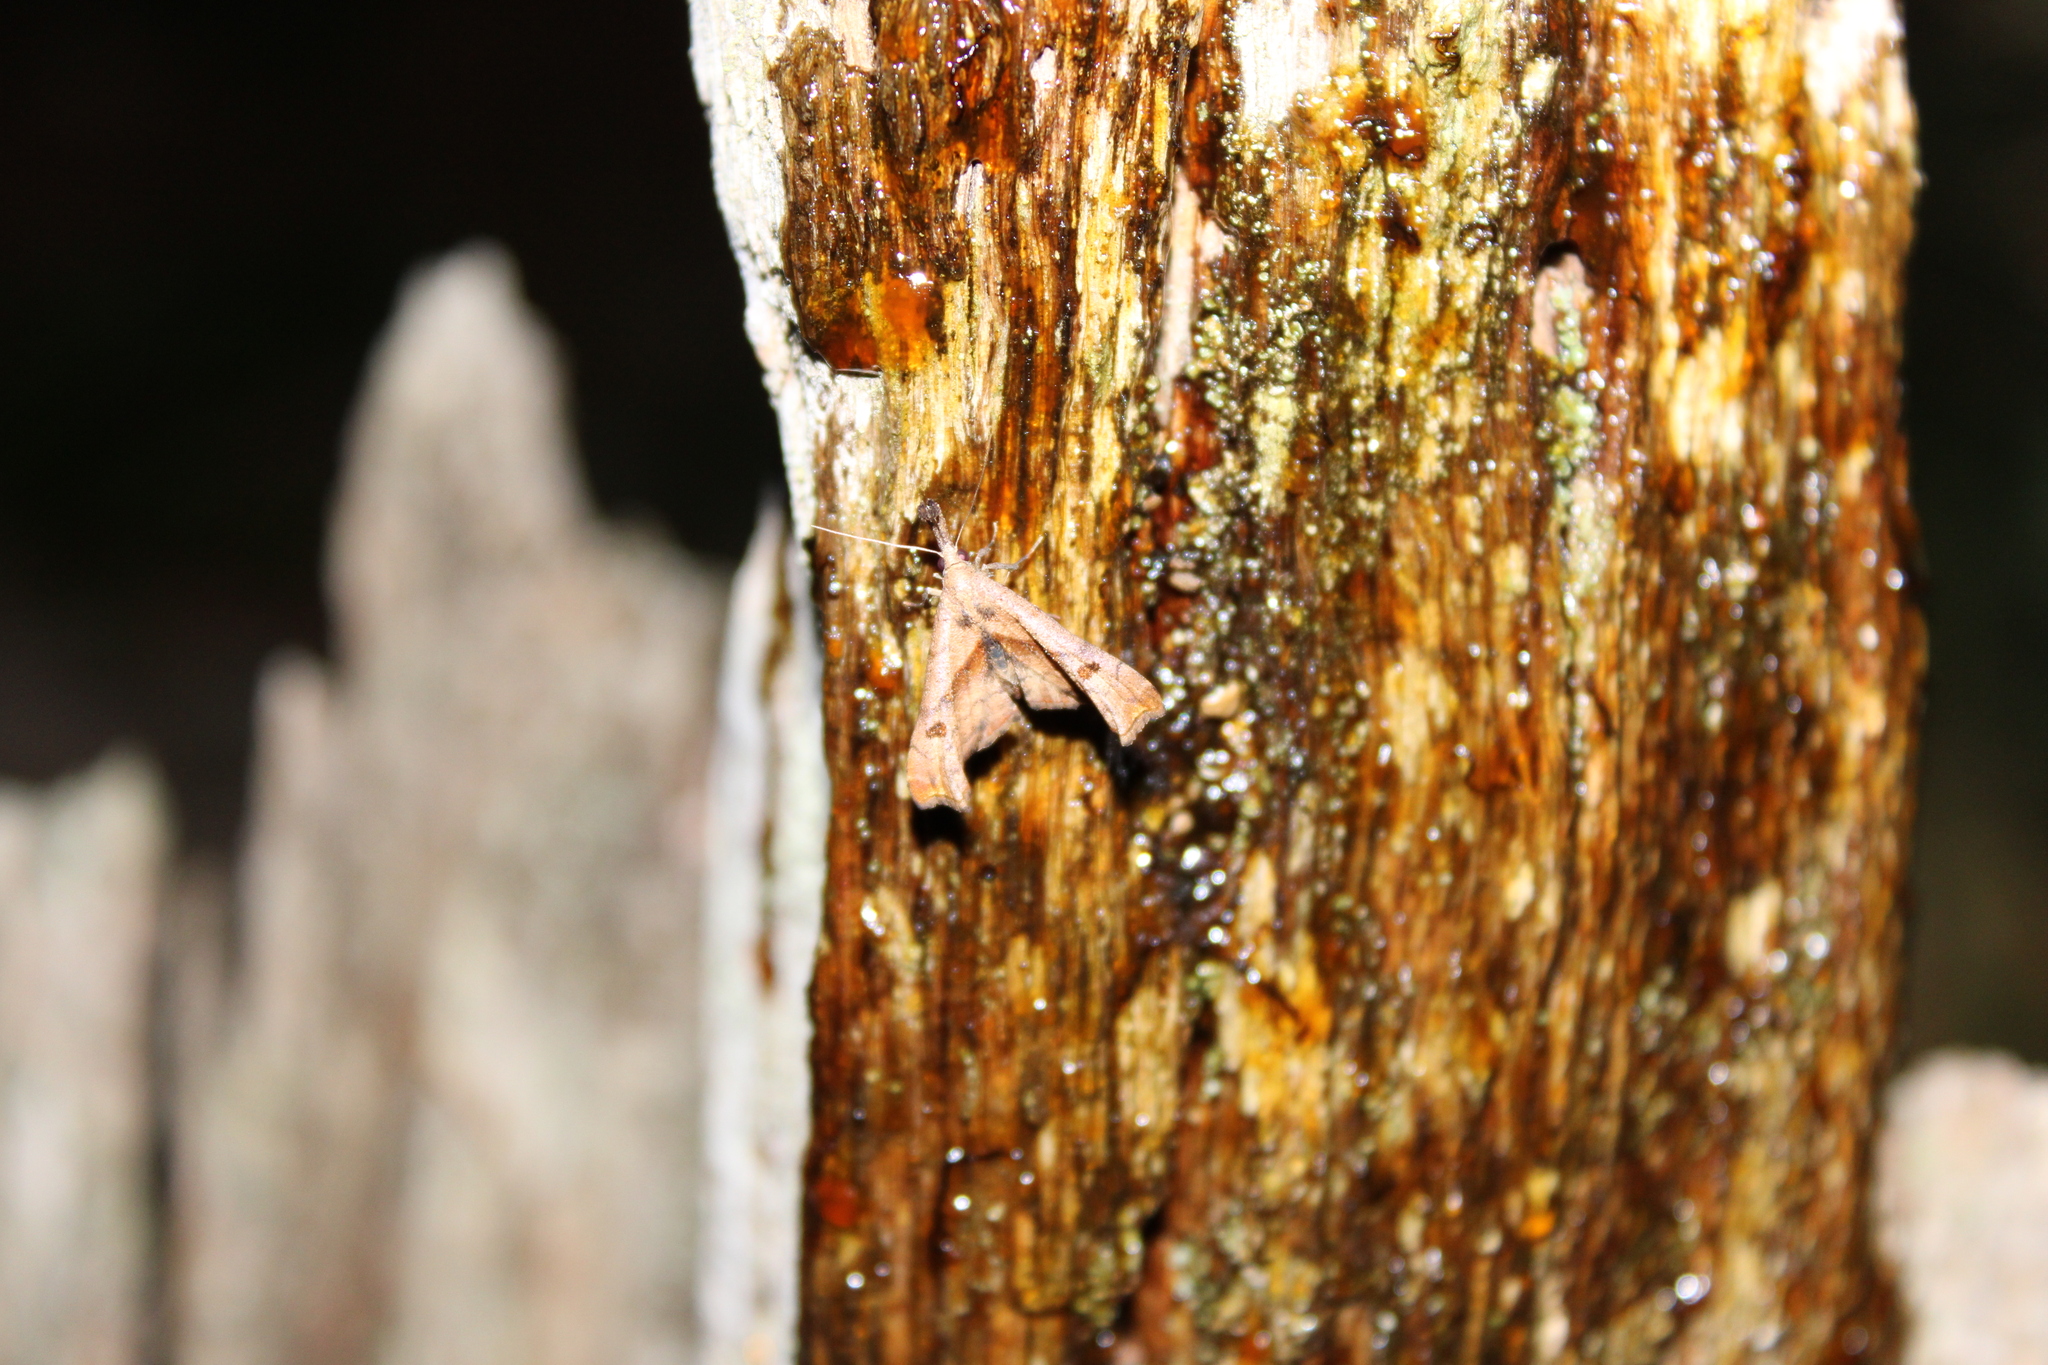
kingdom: Animalia
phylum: Arthropoda
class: Insecta
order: Lepidoptera
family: Erebidae
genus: Palthis
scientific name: Palthis angulalis
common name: Dark-spotted palthis moth
